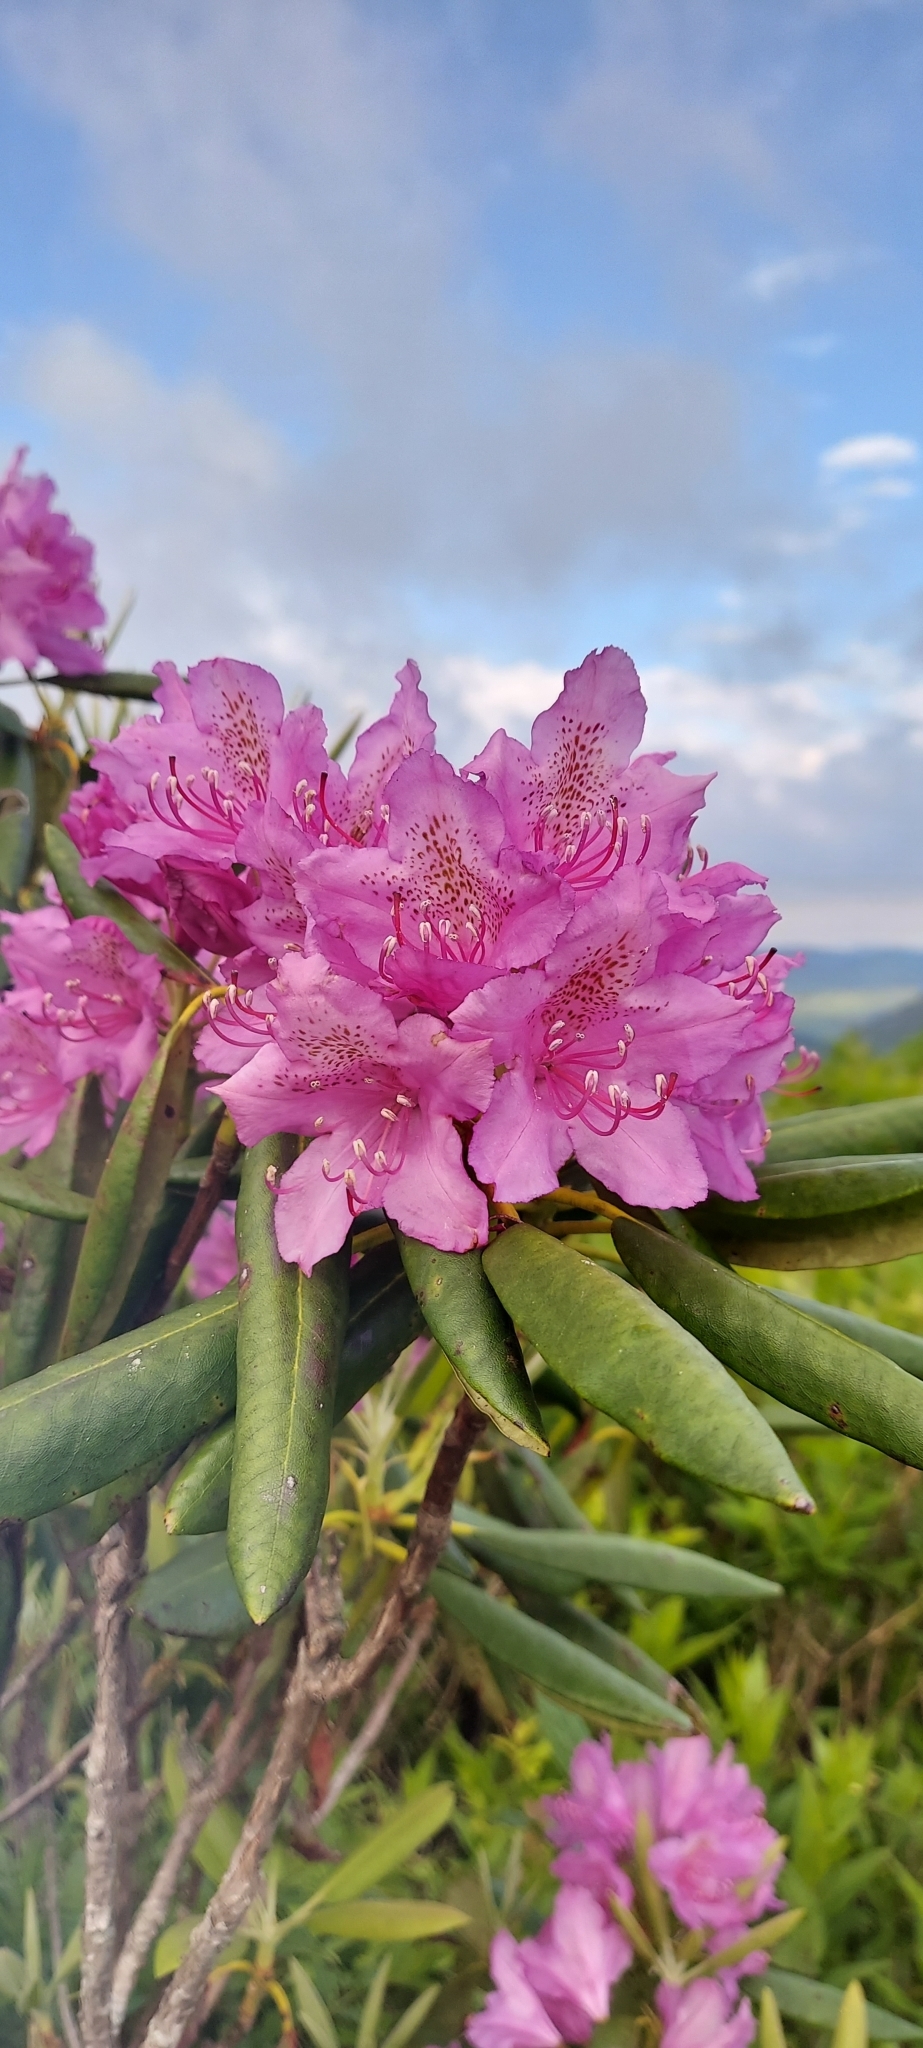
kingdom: Plantae
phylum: Tracheophyta
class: Magnoliopsida
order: Ericales
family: Ericaceae
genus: Rhododendron
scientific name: Rhododendron catawbiense
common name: Catawba rhododendron
